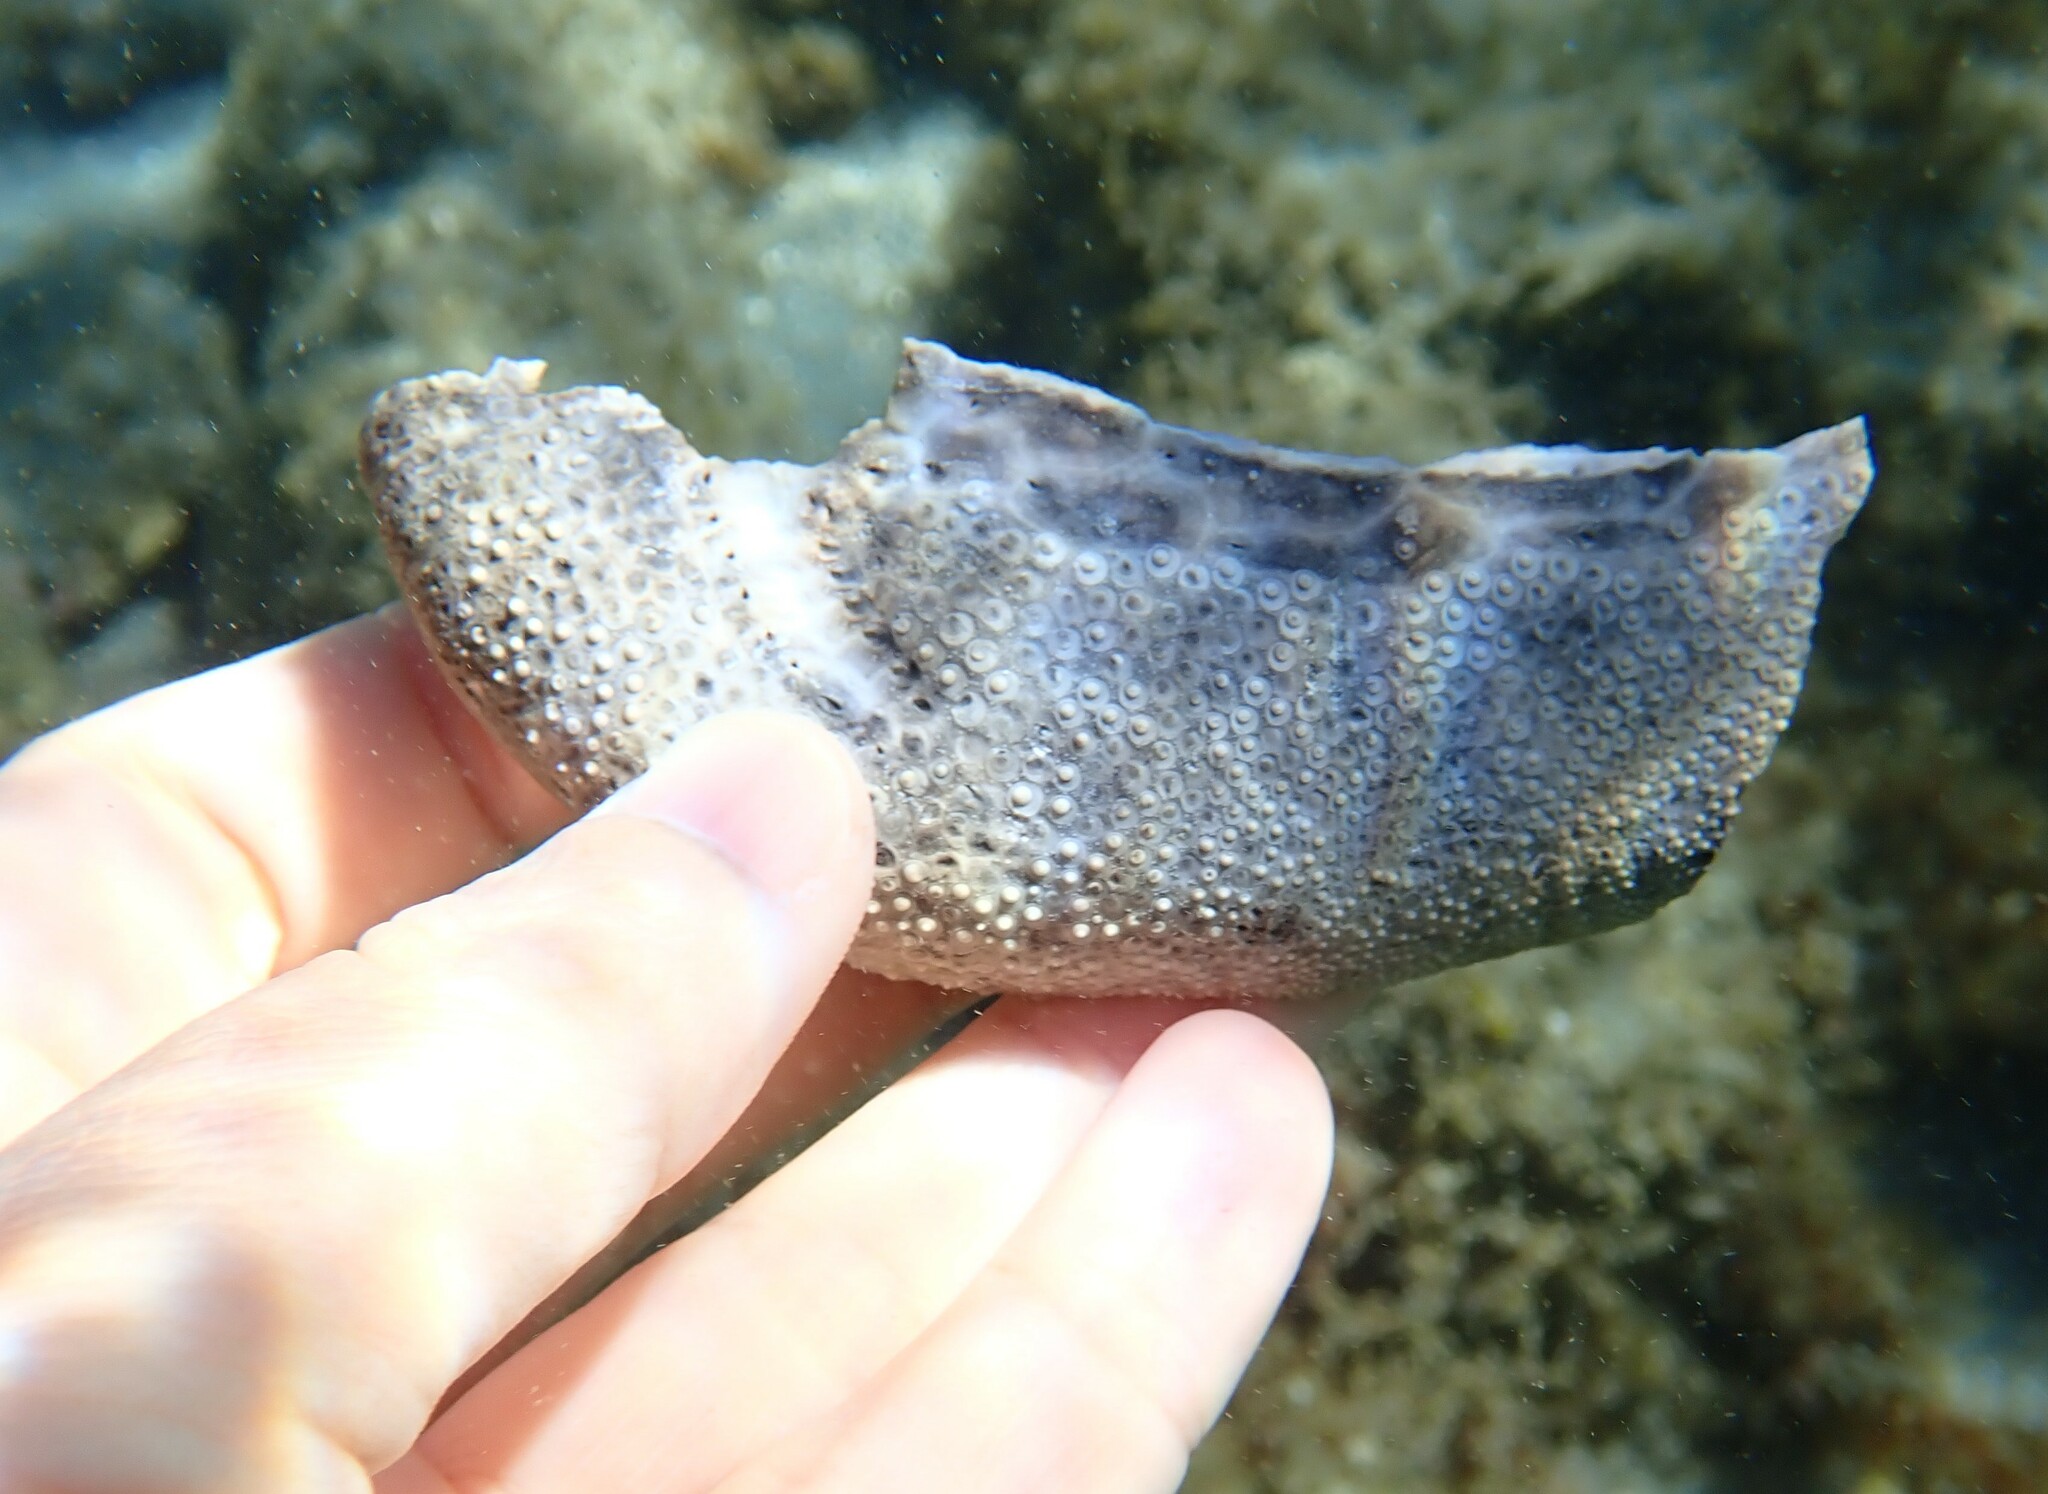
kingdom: Animalia
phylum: Echinodermata
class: Echinoidea
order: Spatangoida
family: Brissidae
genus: Brissus
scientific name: Brissus unicolor
